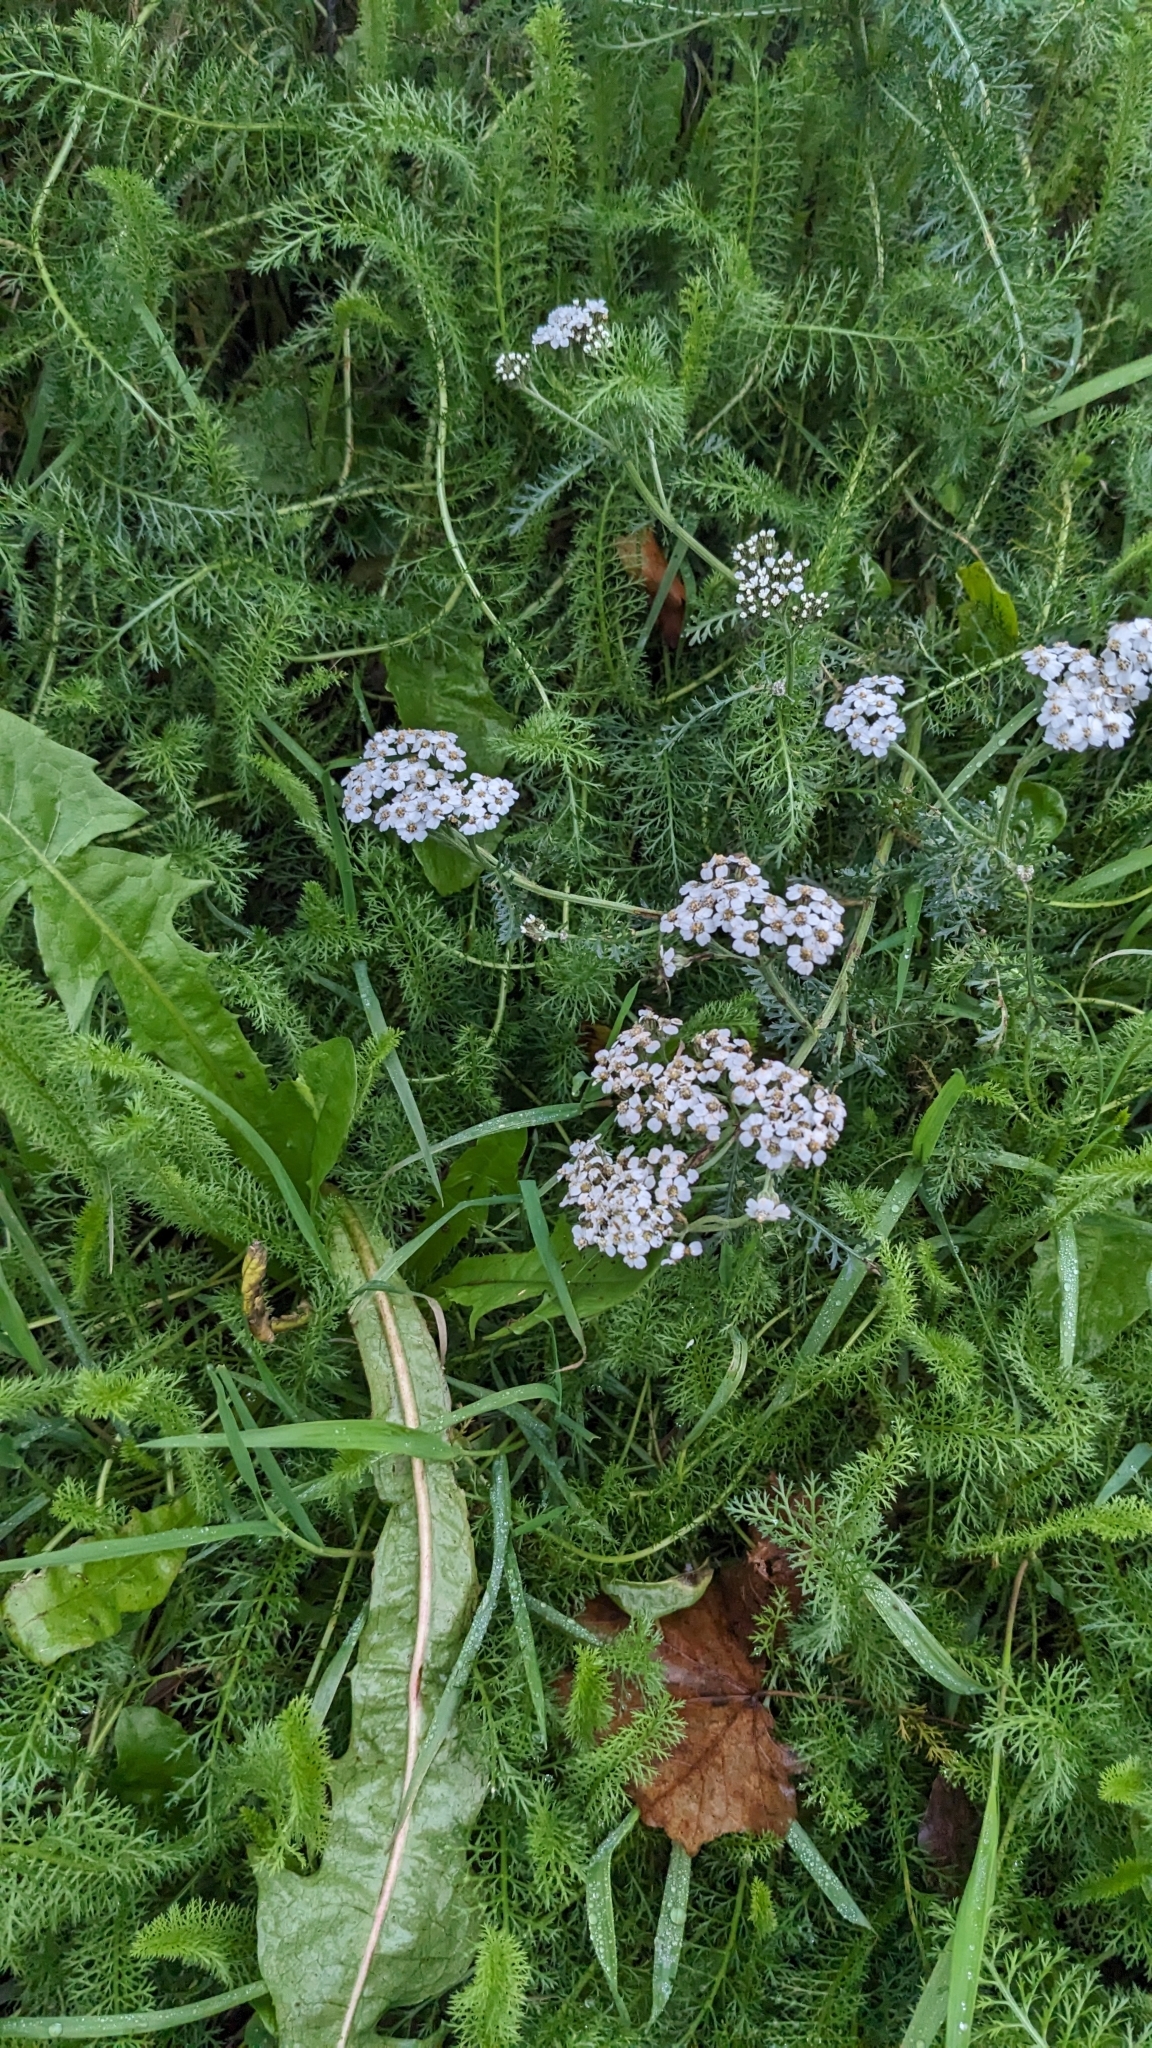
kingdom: Plantae
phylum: Tracheophyta
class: Magnoliopsida
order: Asterales
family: Asteraceae
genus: Achillea
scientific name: Achillea millefolium
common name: Yarrow
